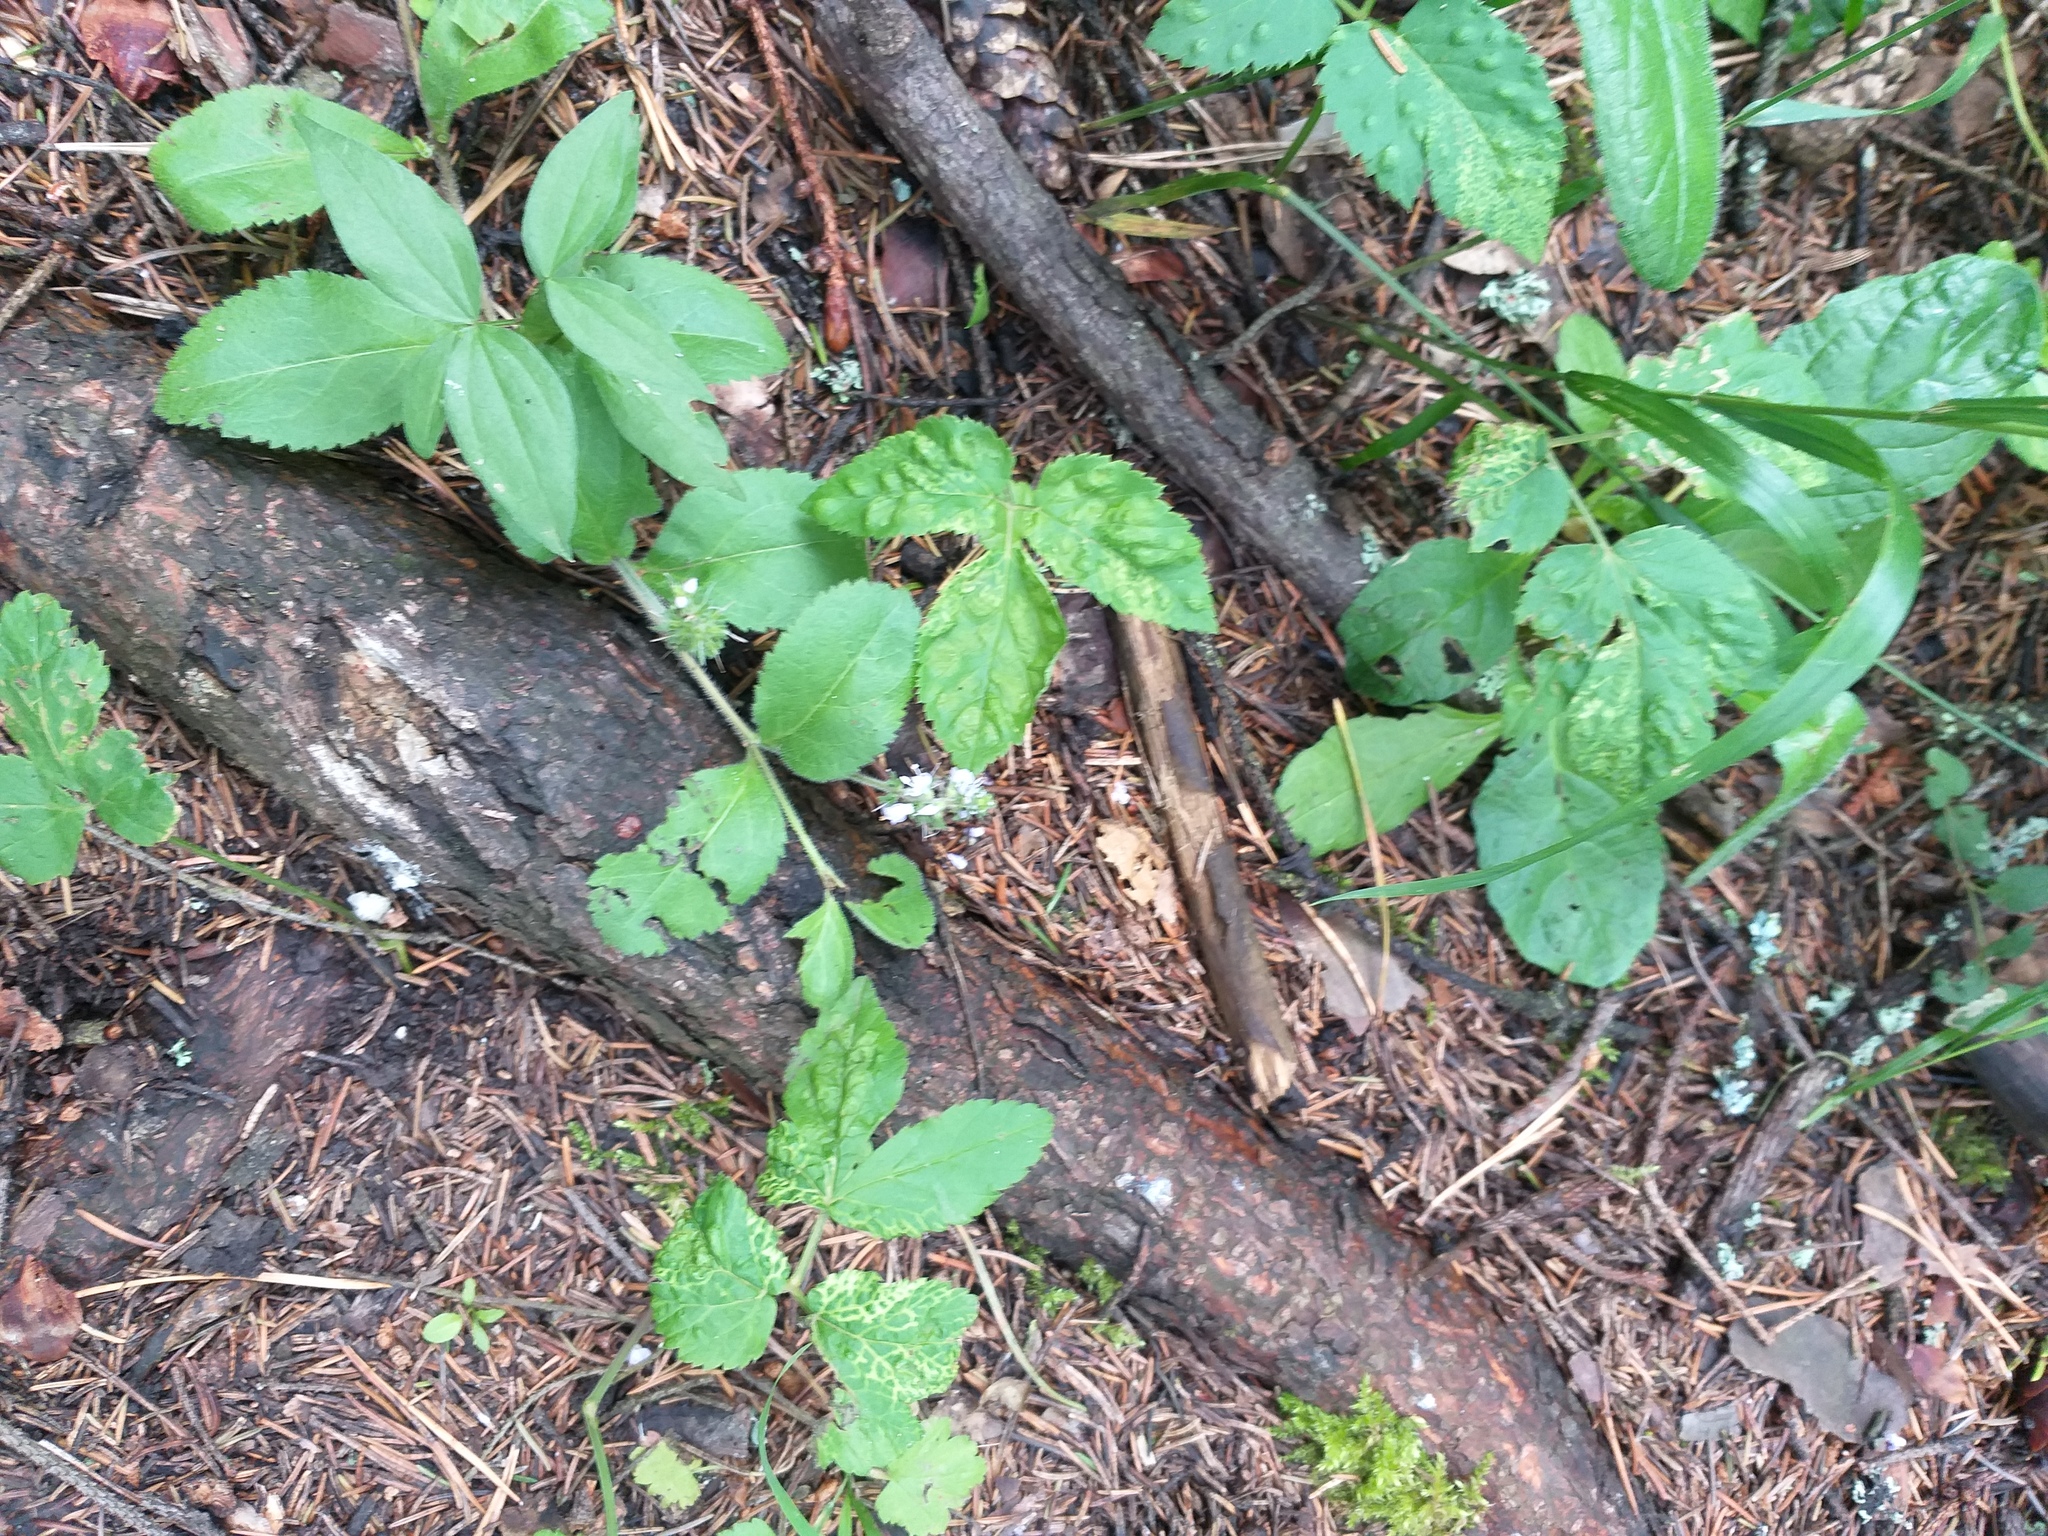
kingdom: Plantae
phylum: Tracheophyta
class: Magnoliopsida
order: Lamiales
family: Plantaginaceae
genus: Veronica
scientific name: Veronica officinalis
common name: Common speedwell
